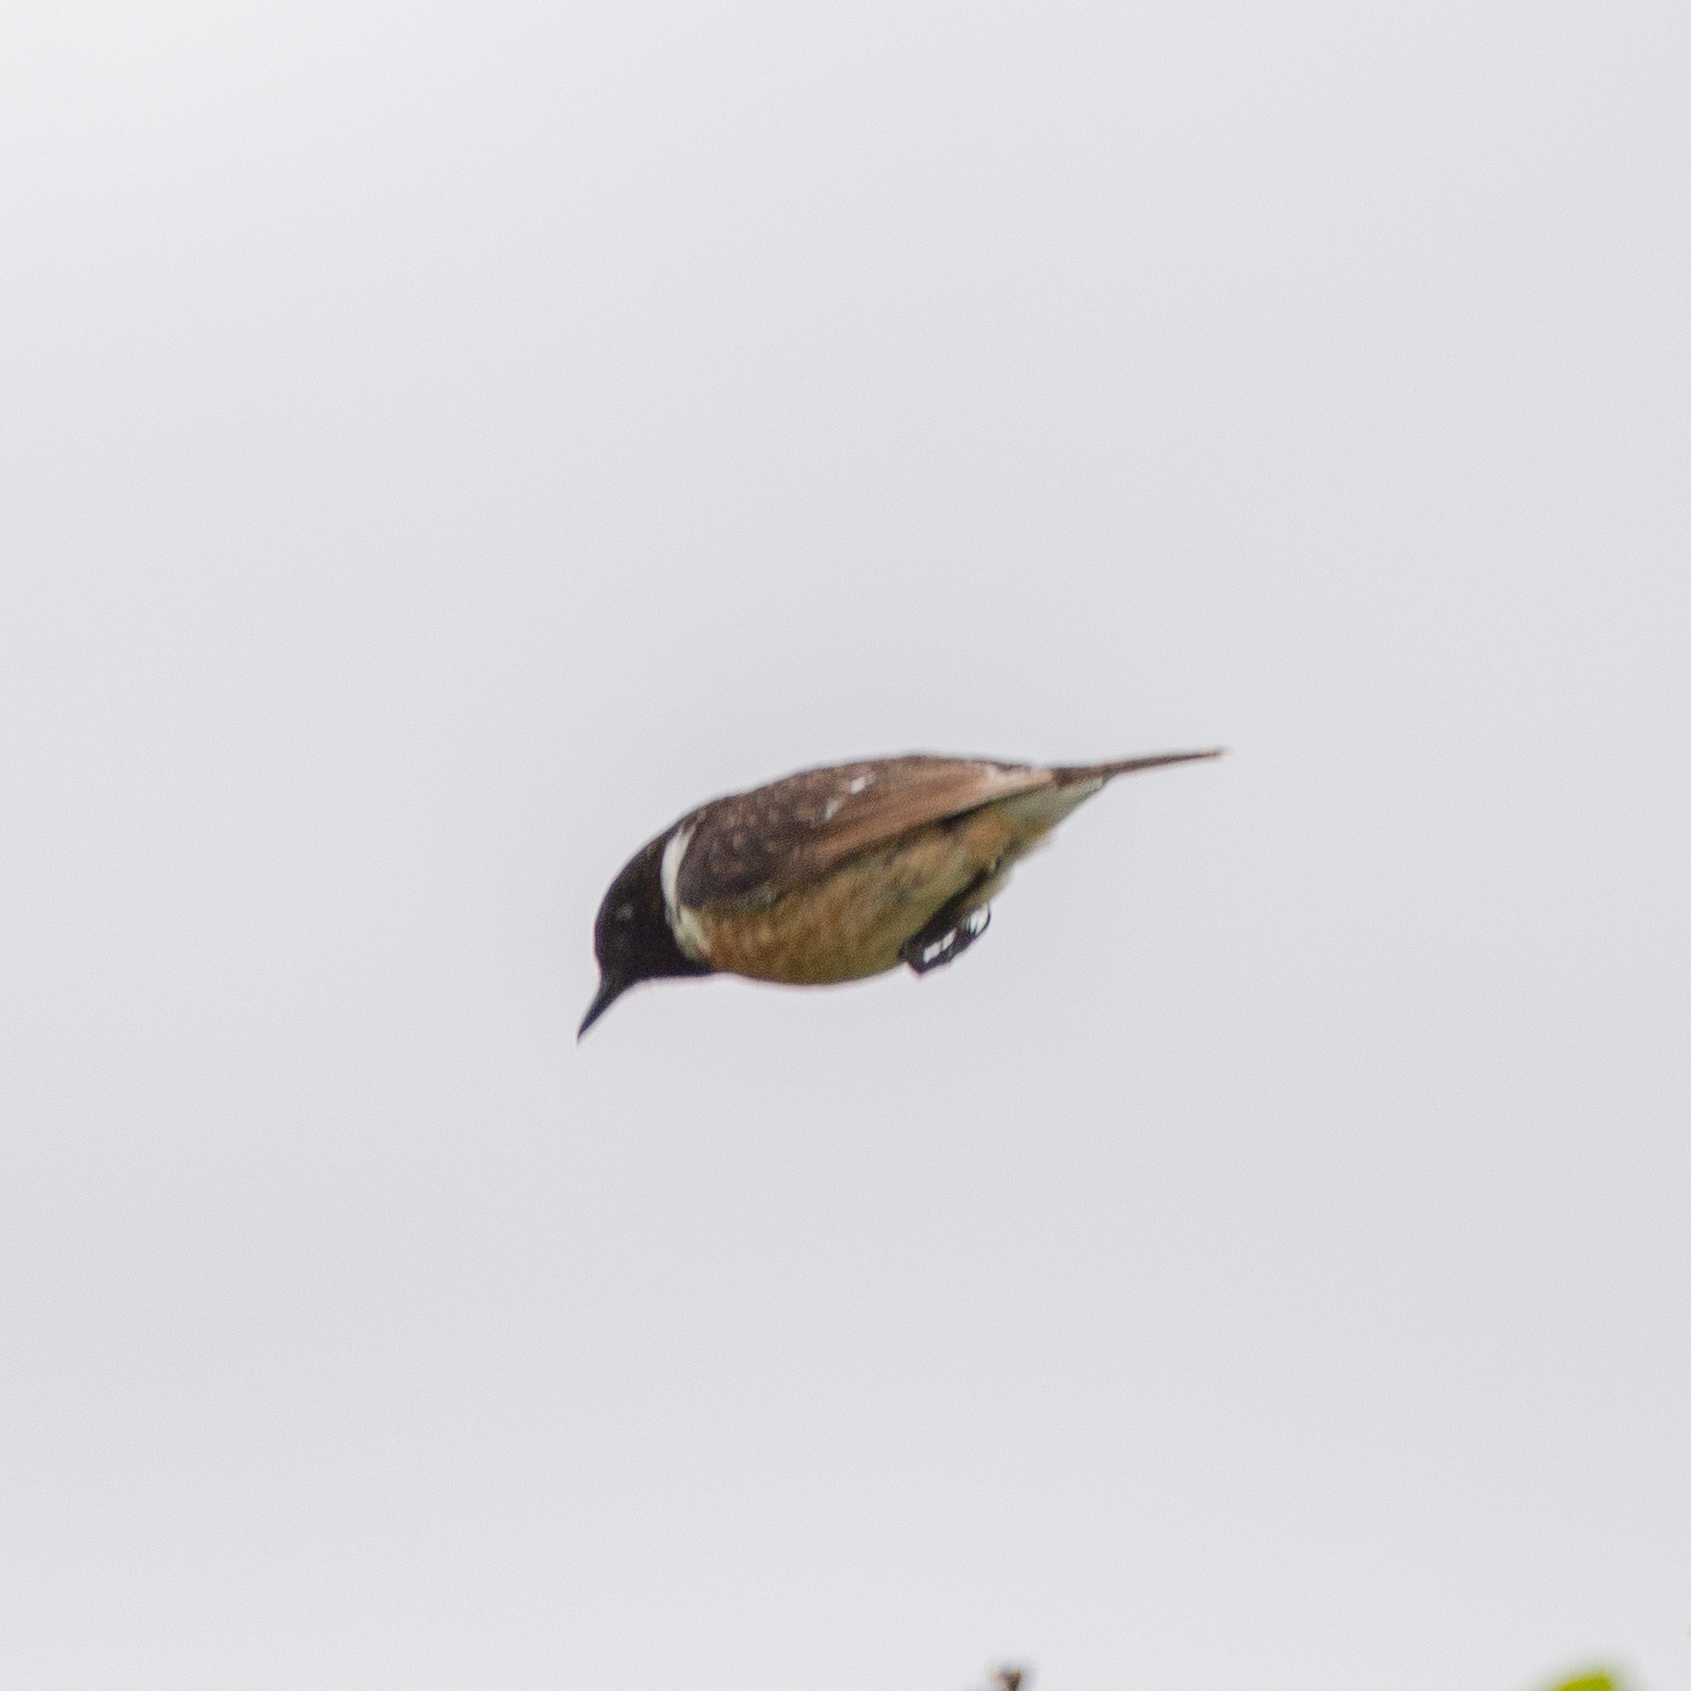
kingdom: Animalia
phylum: Chordata
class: Aves
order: Passeriformes
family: Muscicapidae
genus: Saxicola
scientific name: Saxicola rubicola
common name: European stonechat
